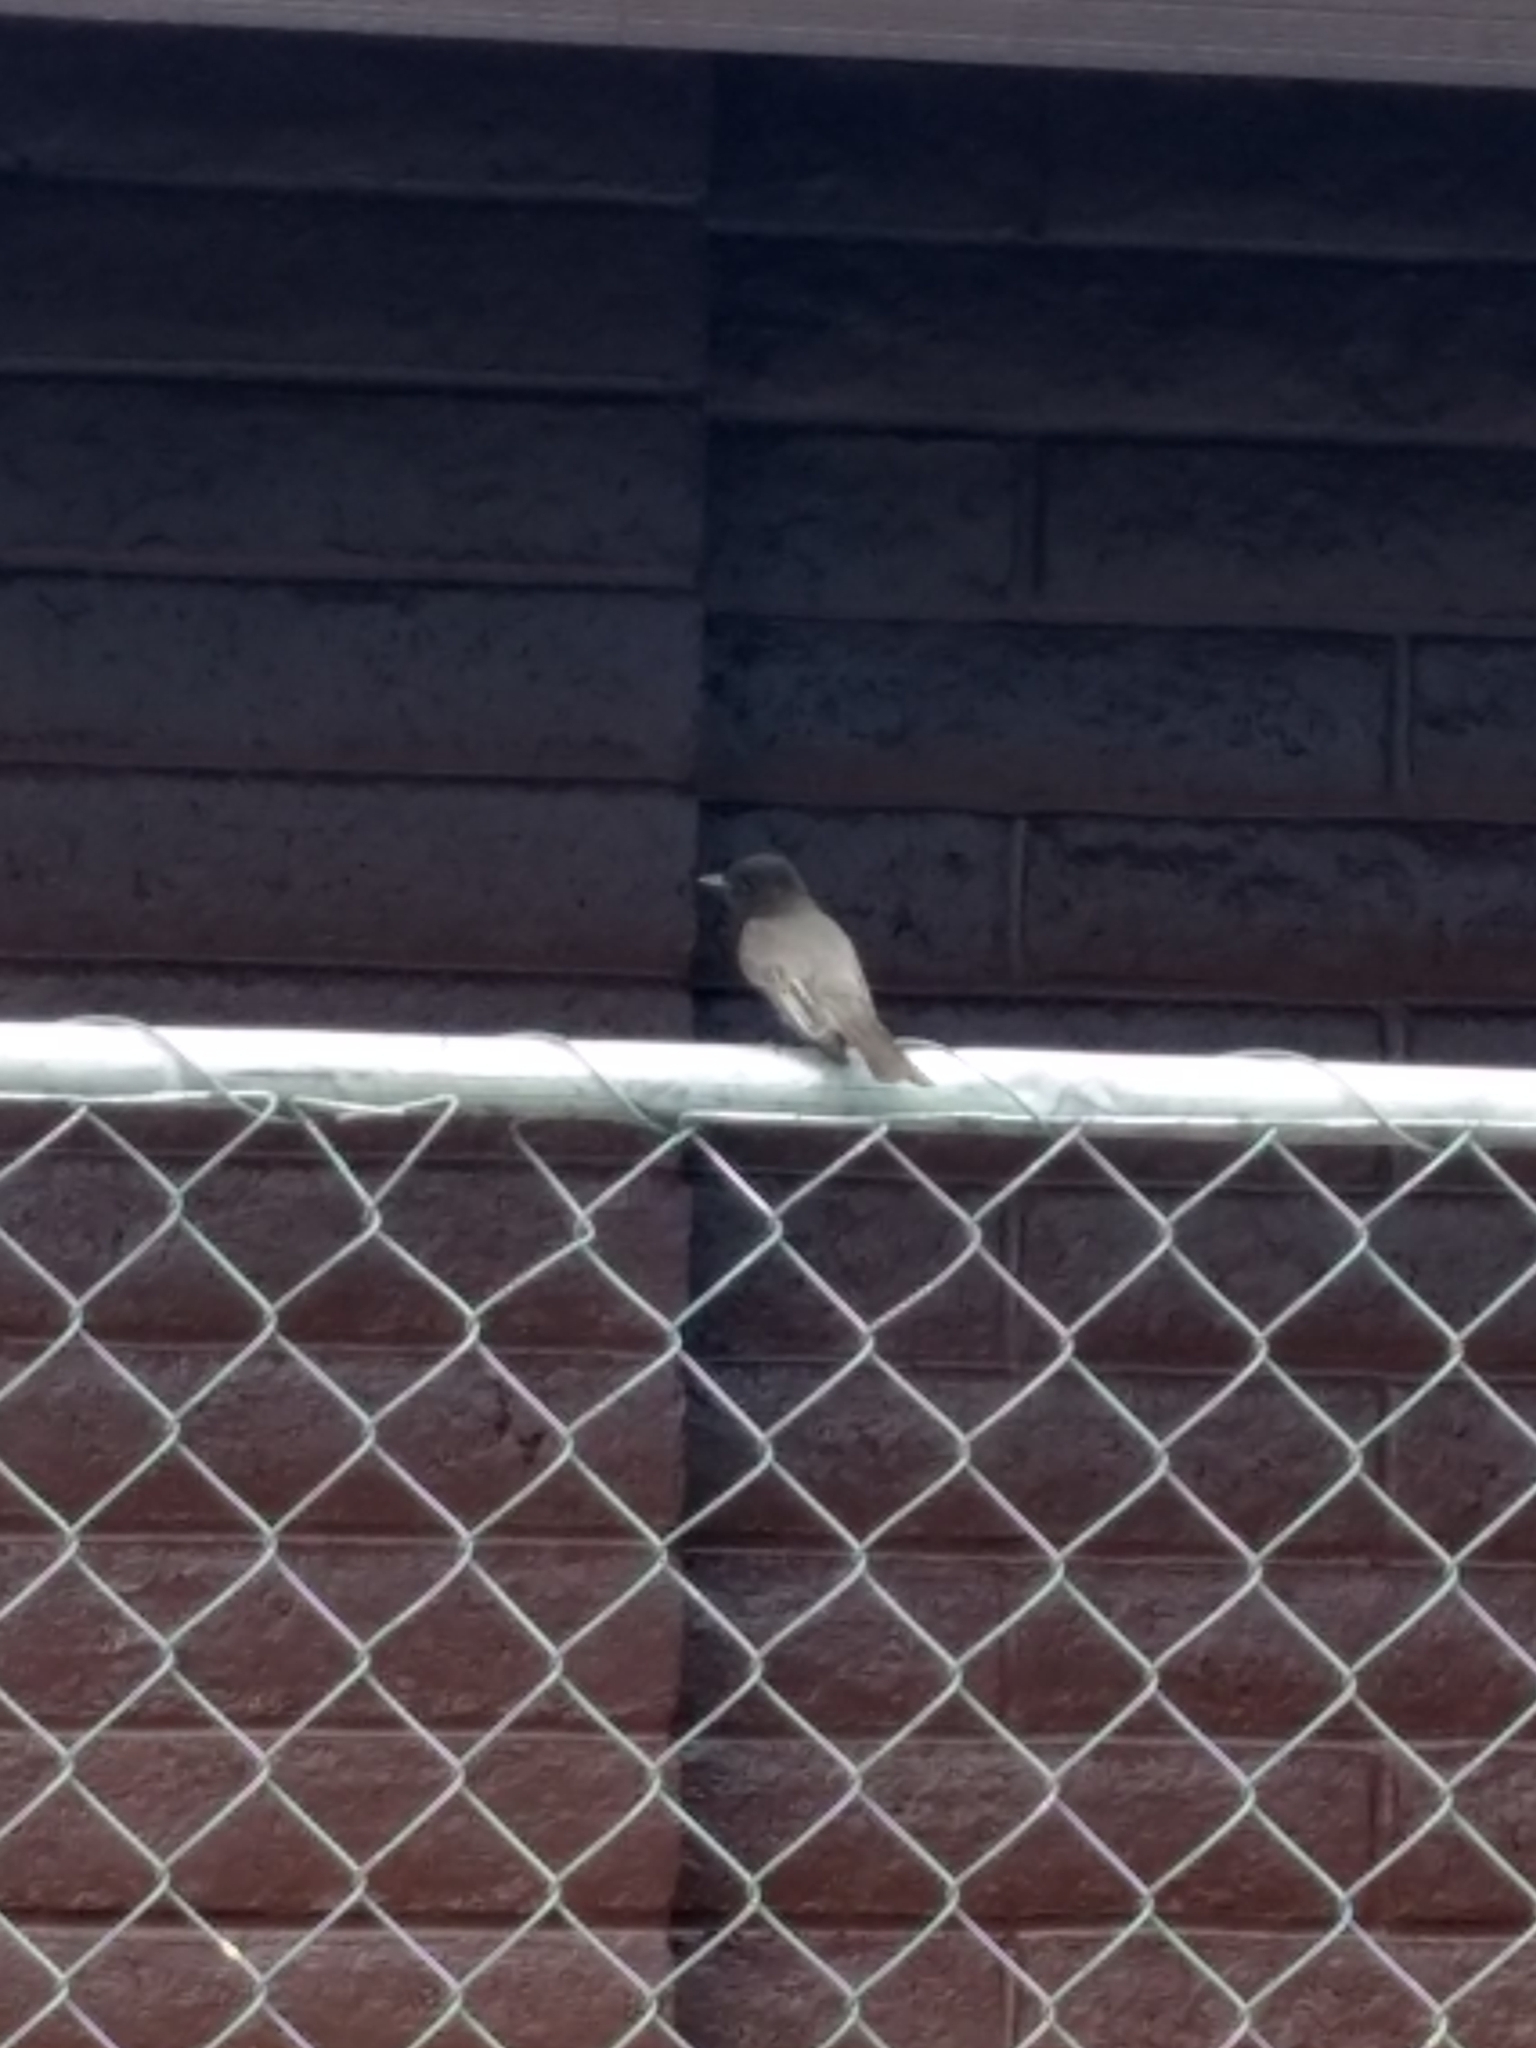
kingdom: Animalia
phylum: Chordata
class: Aves
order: Passeriformes
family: Tyrannidae
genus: Sayornis
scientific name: Sayornis nigricans
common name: Black phoebe
